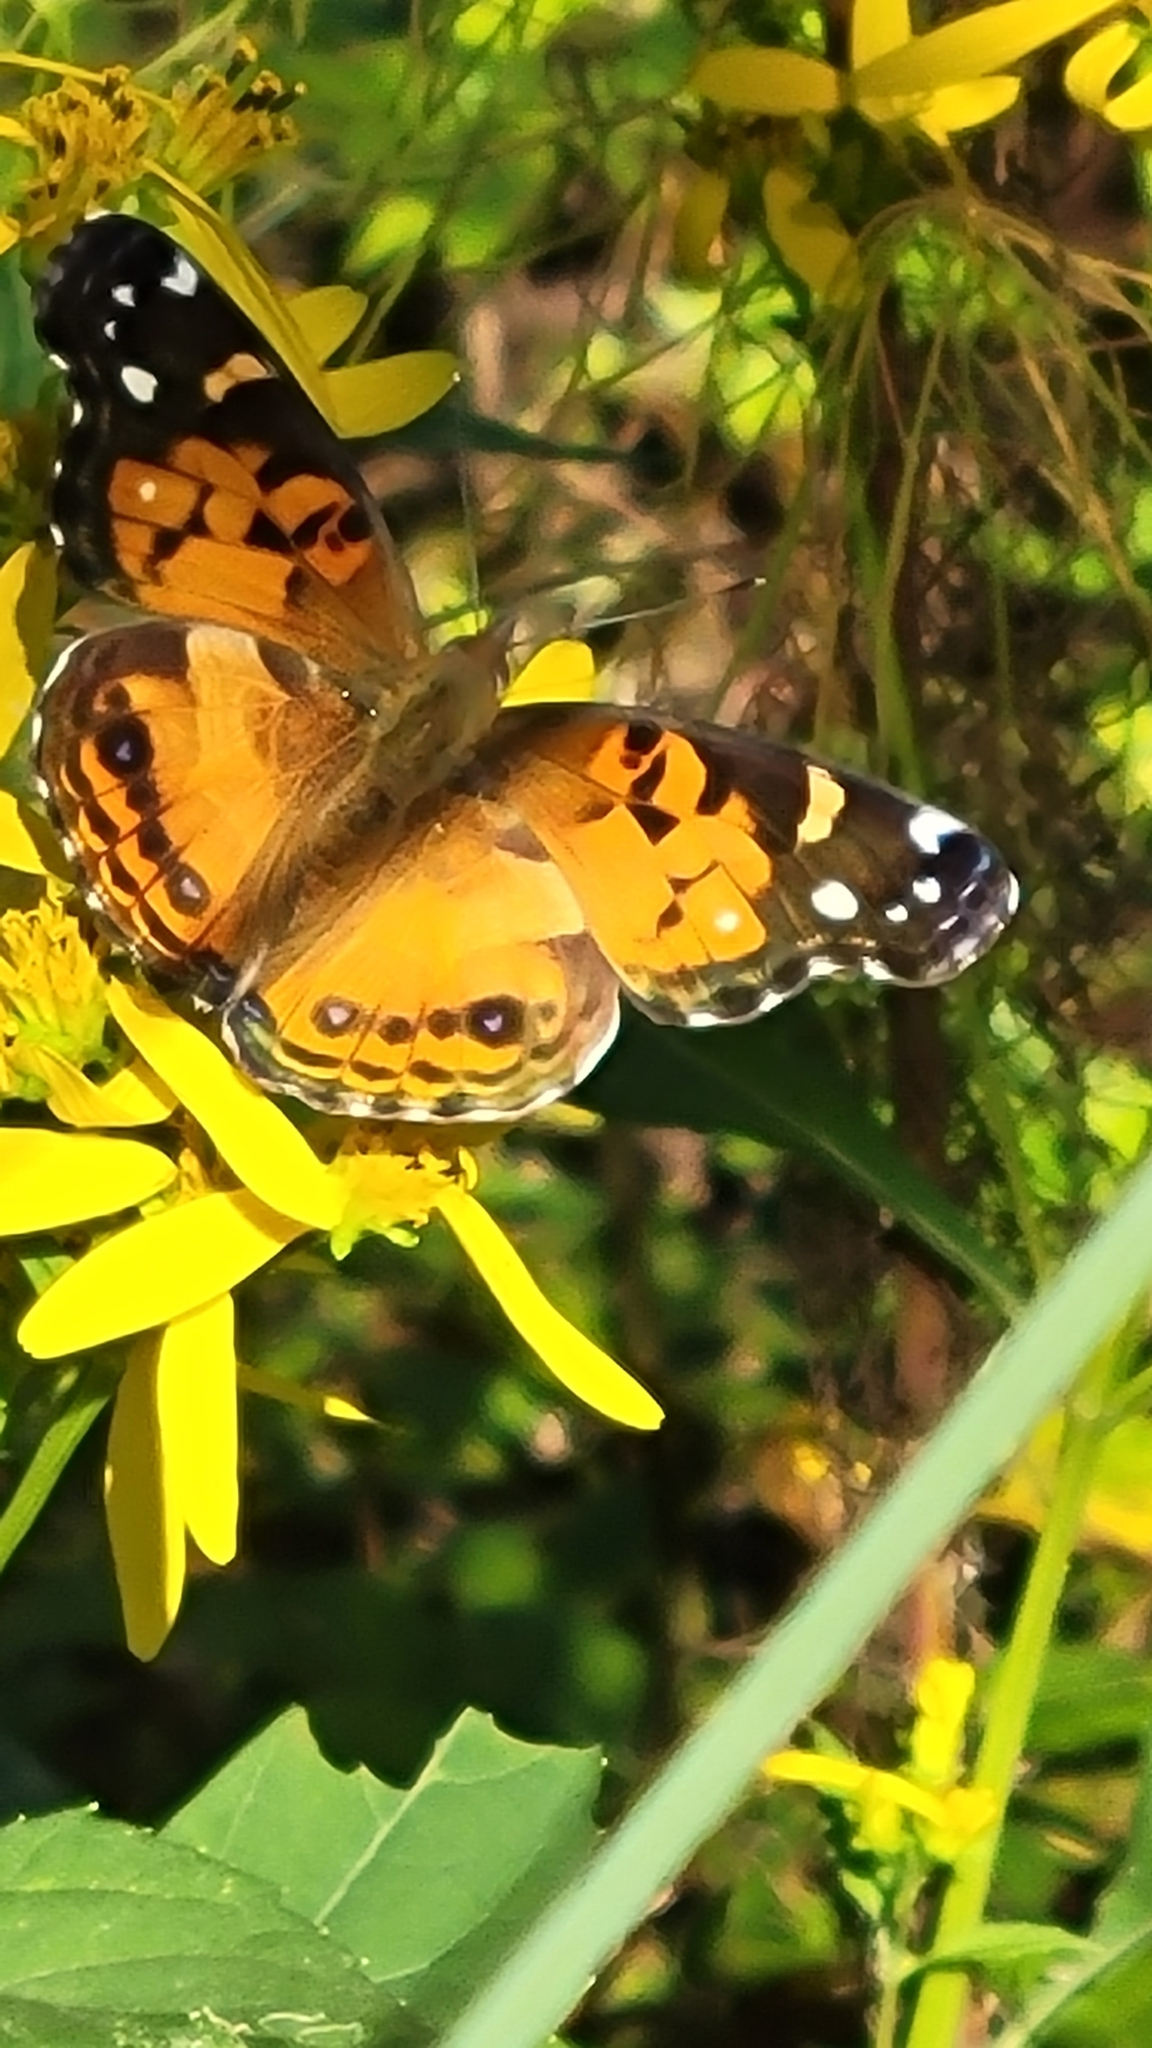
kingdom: Animalia
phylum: Arthropoda
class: Insecta
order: Lepidoptera
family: Nymphalidae
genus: Vanessa
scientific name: Vanessa virginiensis
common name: American lady
